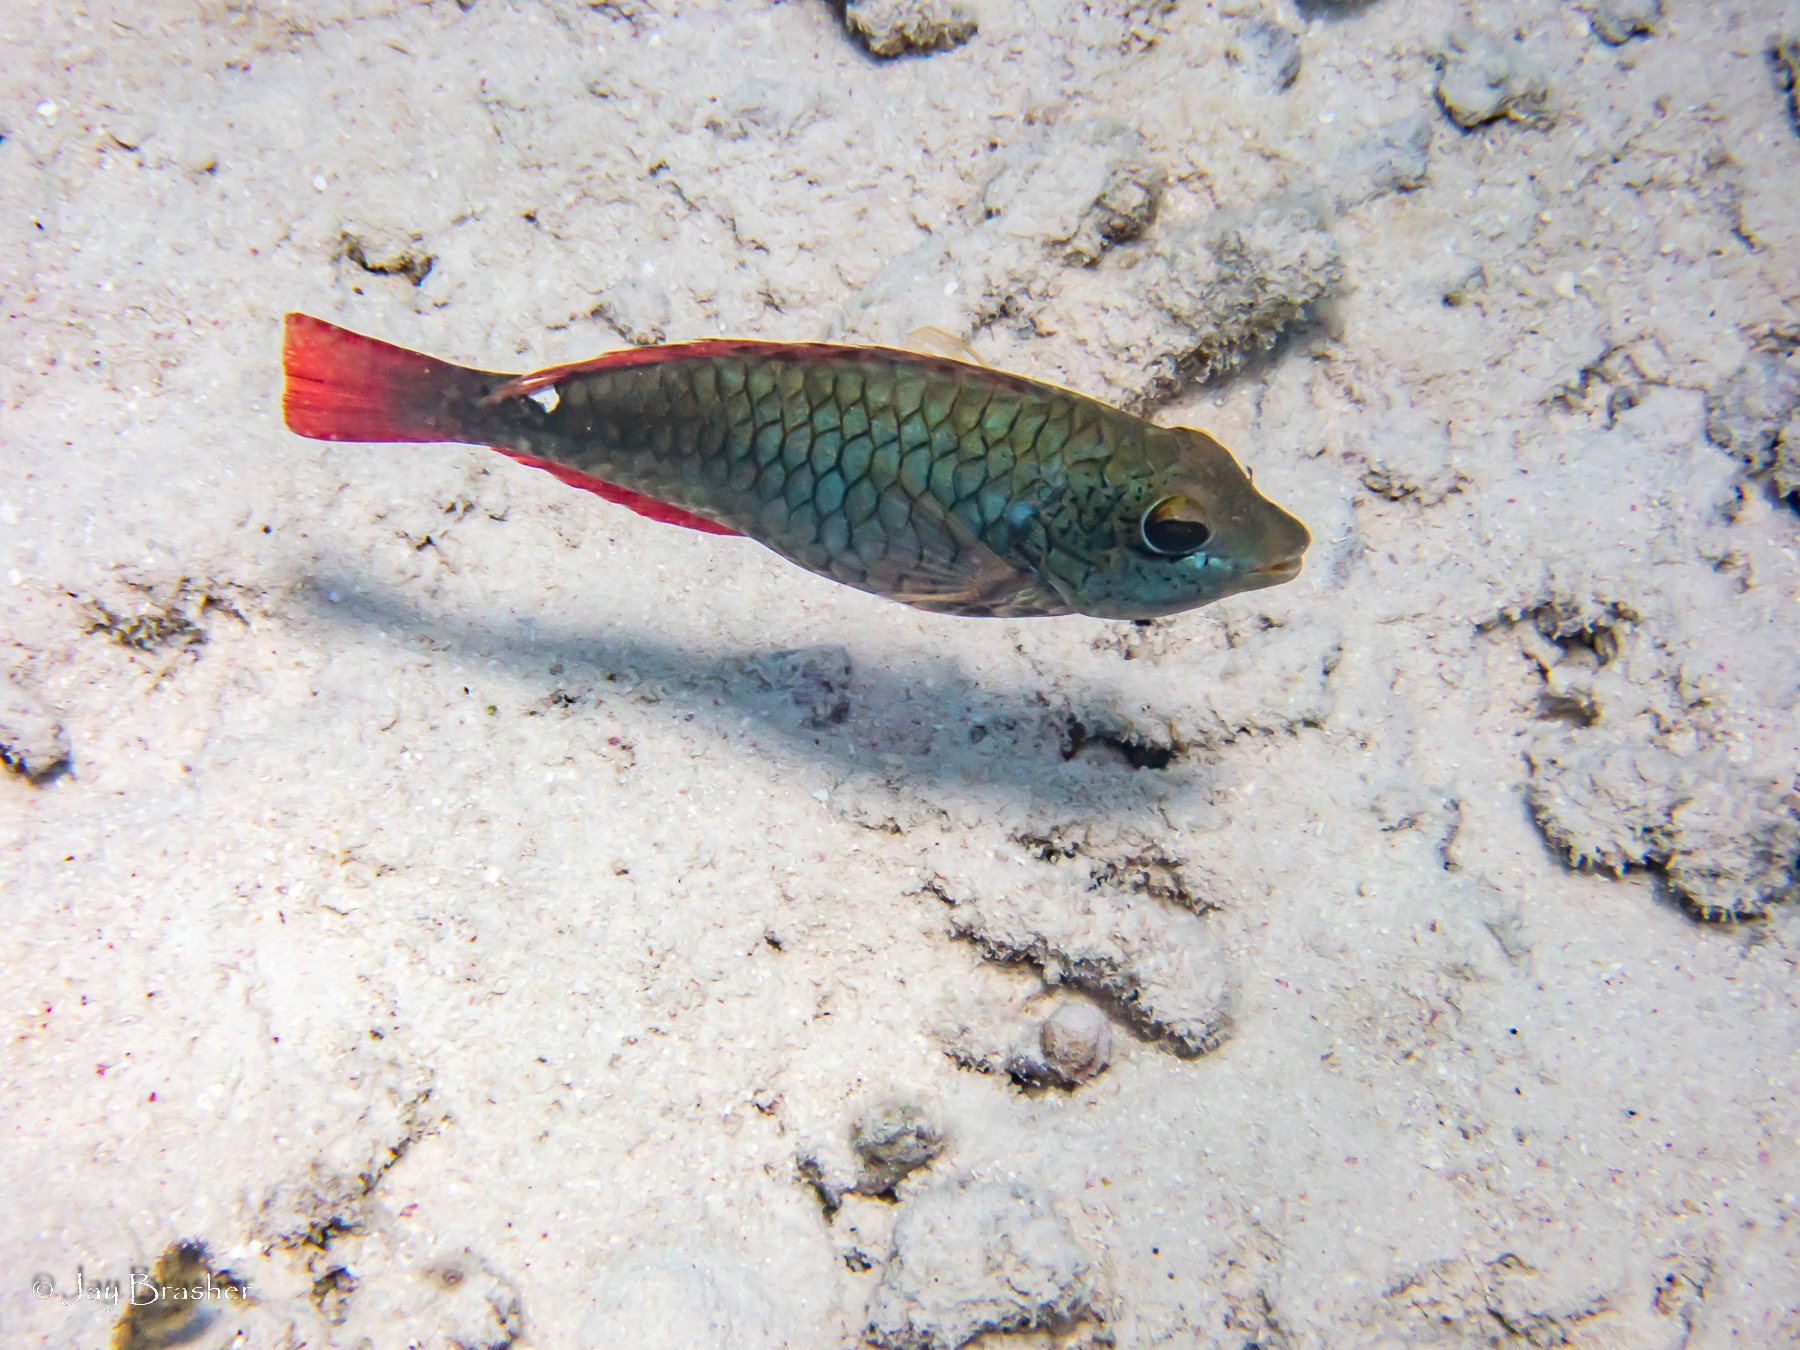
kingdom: Animalia
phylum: Chordata
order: Perciformes
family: Scaridae
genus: Sparisoma
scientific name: Sparisoma aurofrenatum
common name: Redband parrotfish
